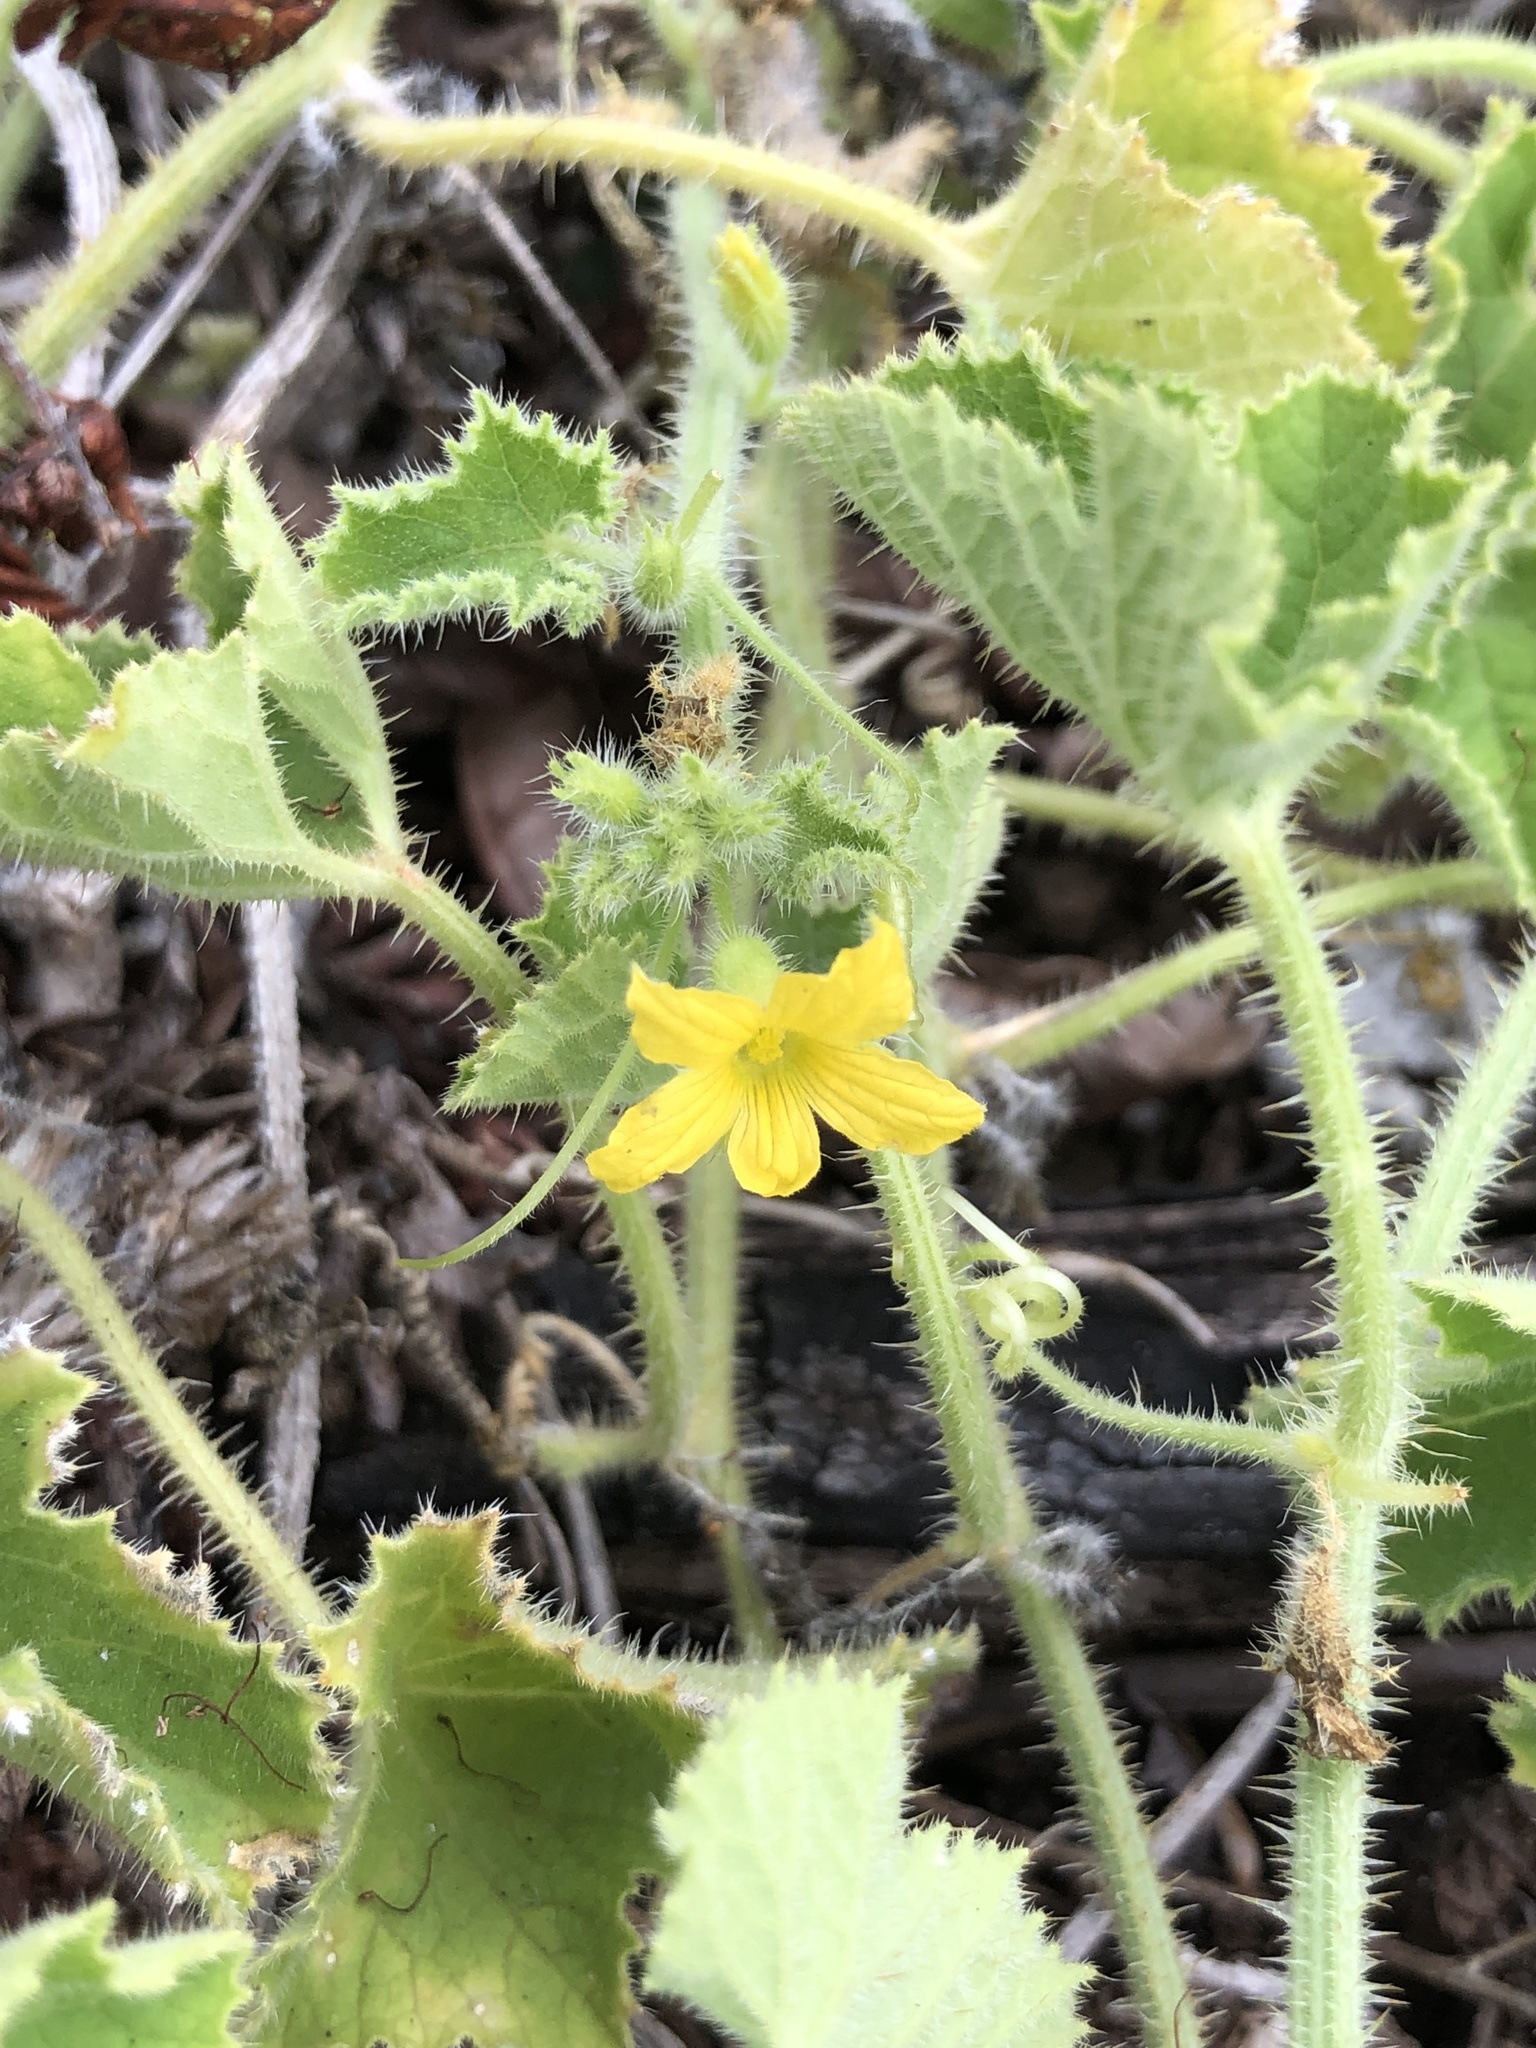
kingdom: Plantae
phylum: Tracheophyta
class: Magnoliopsida
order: Cucurbitales
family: Cucurbitaceae
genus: Cucumis
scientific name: Cucumis dipsaceus
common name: Hedgehog gourd
